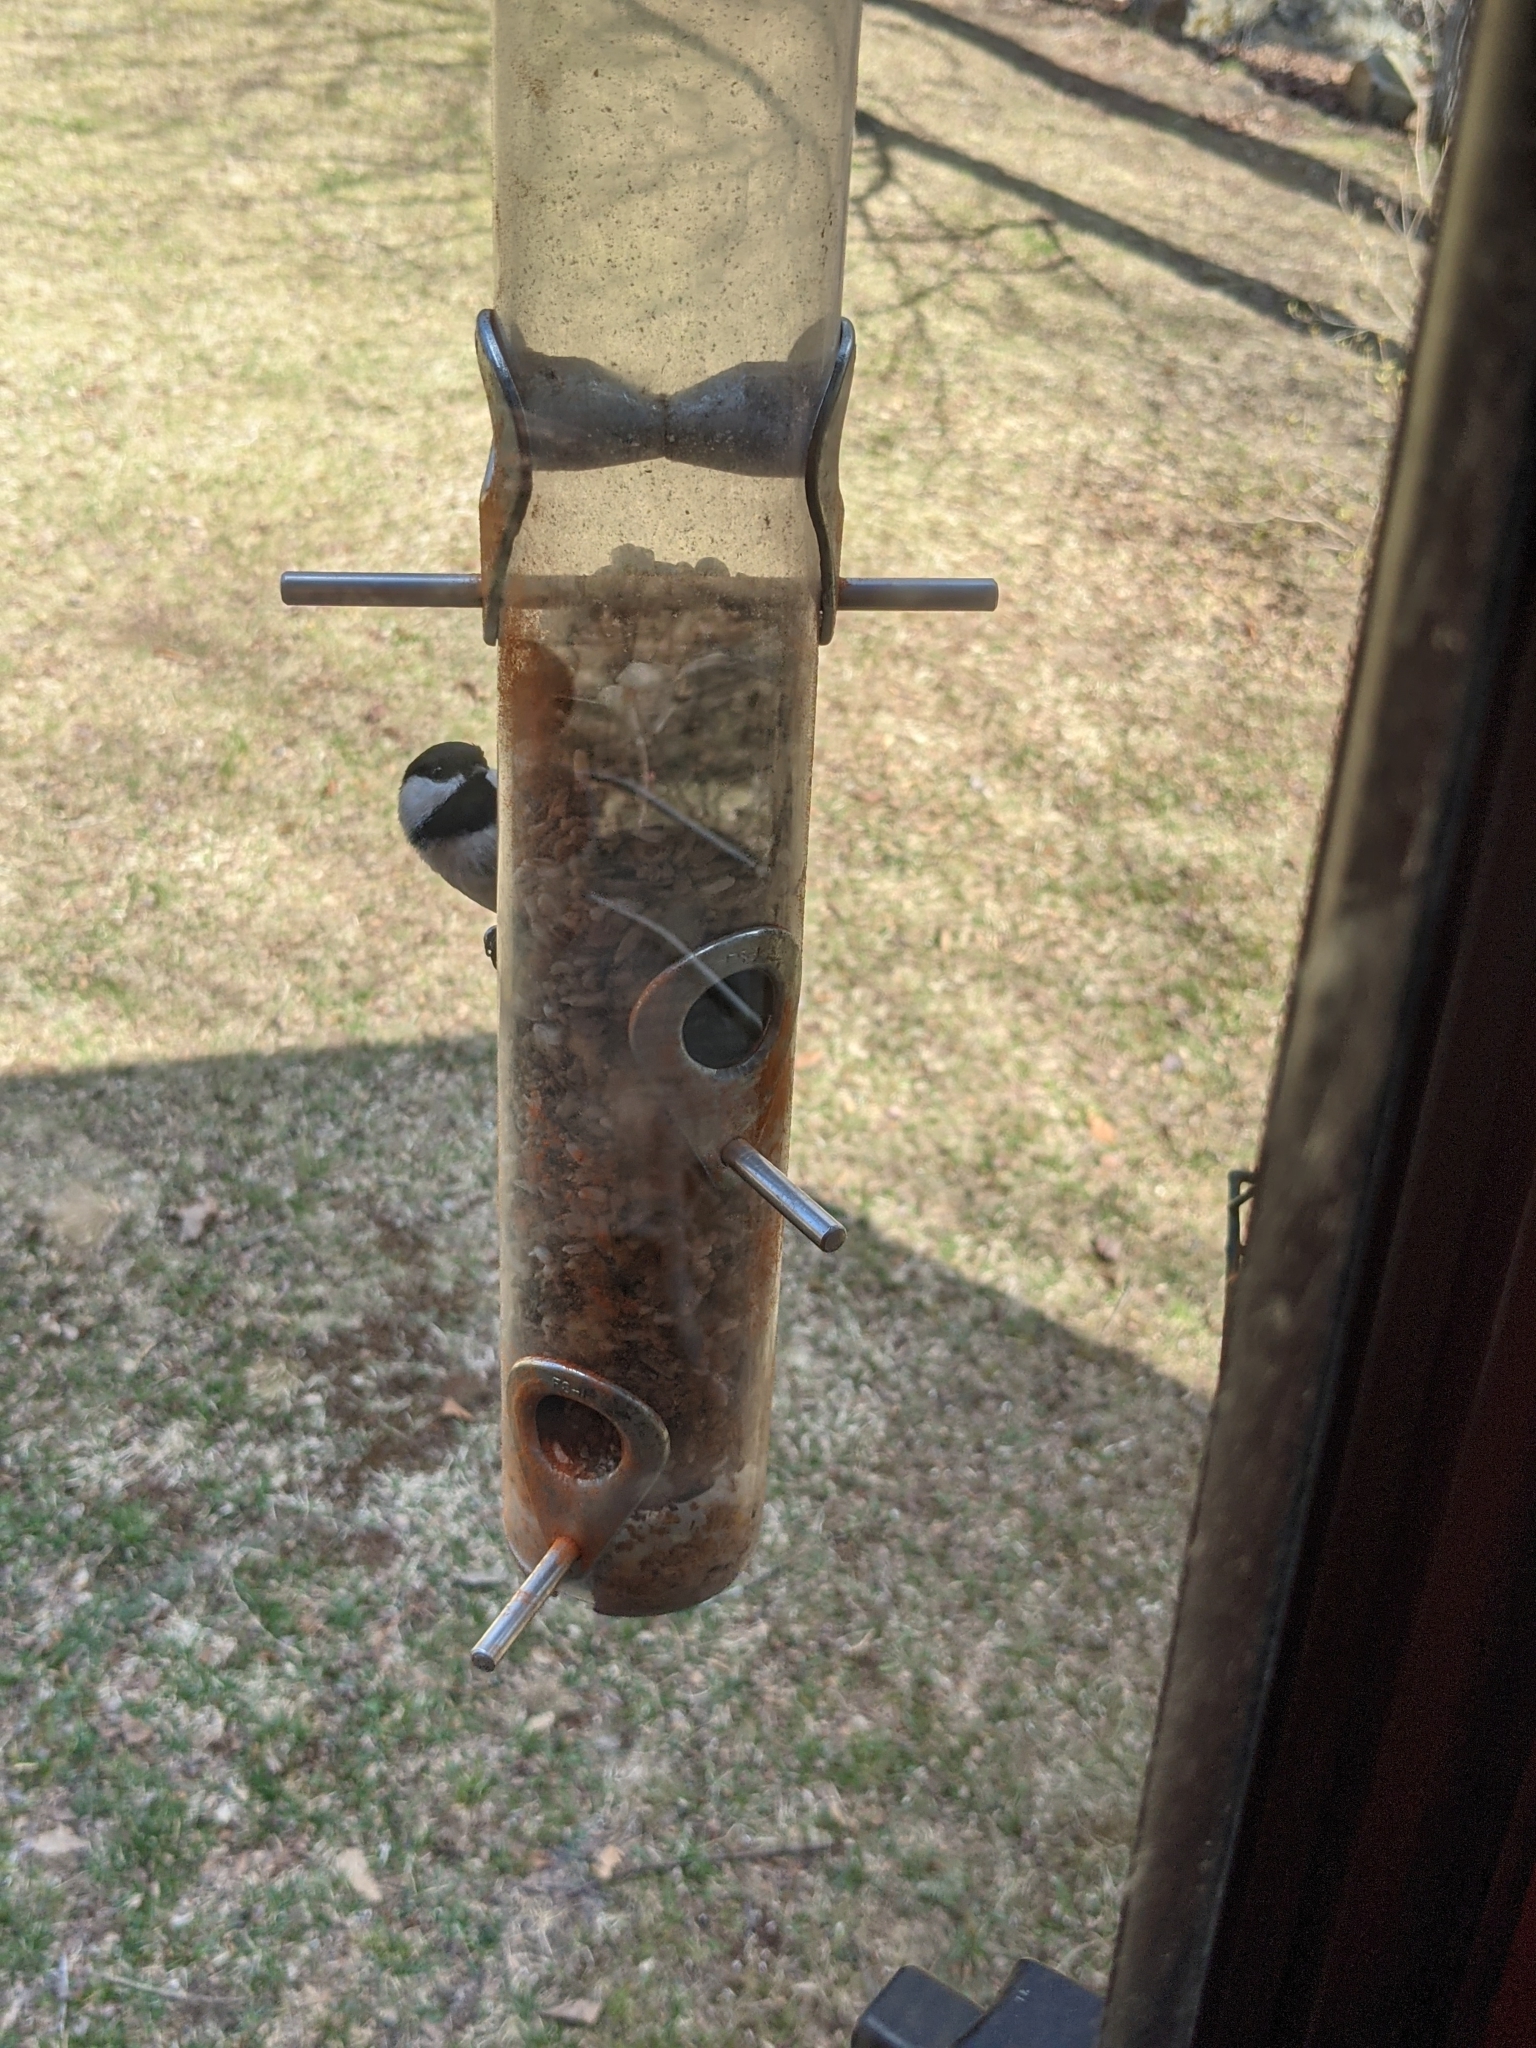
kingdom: Animalia
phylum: Chordata
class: Aves
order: Passeriformes
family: Paridae
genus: Poecile
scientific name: Poecile atricapillus
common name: Black-capped chickadee
